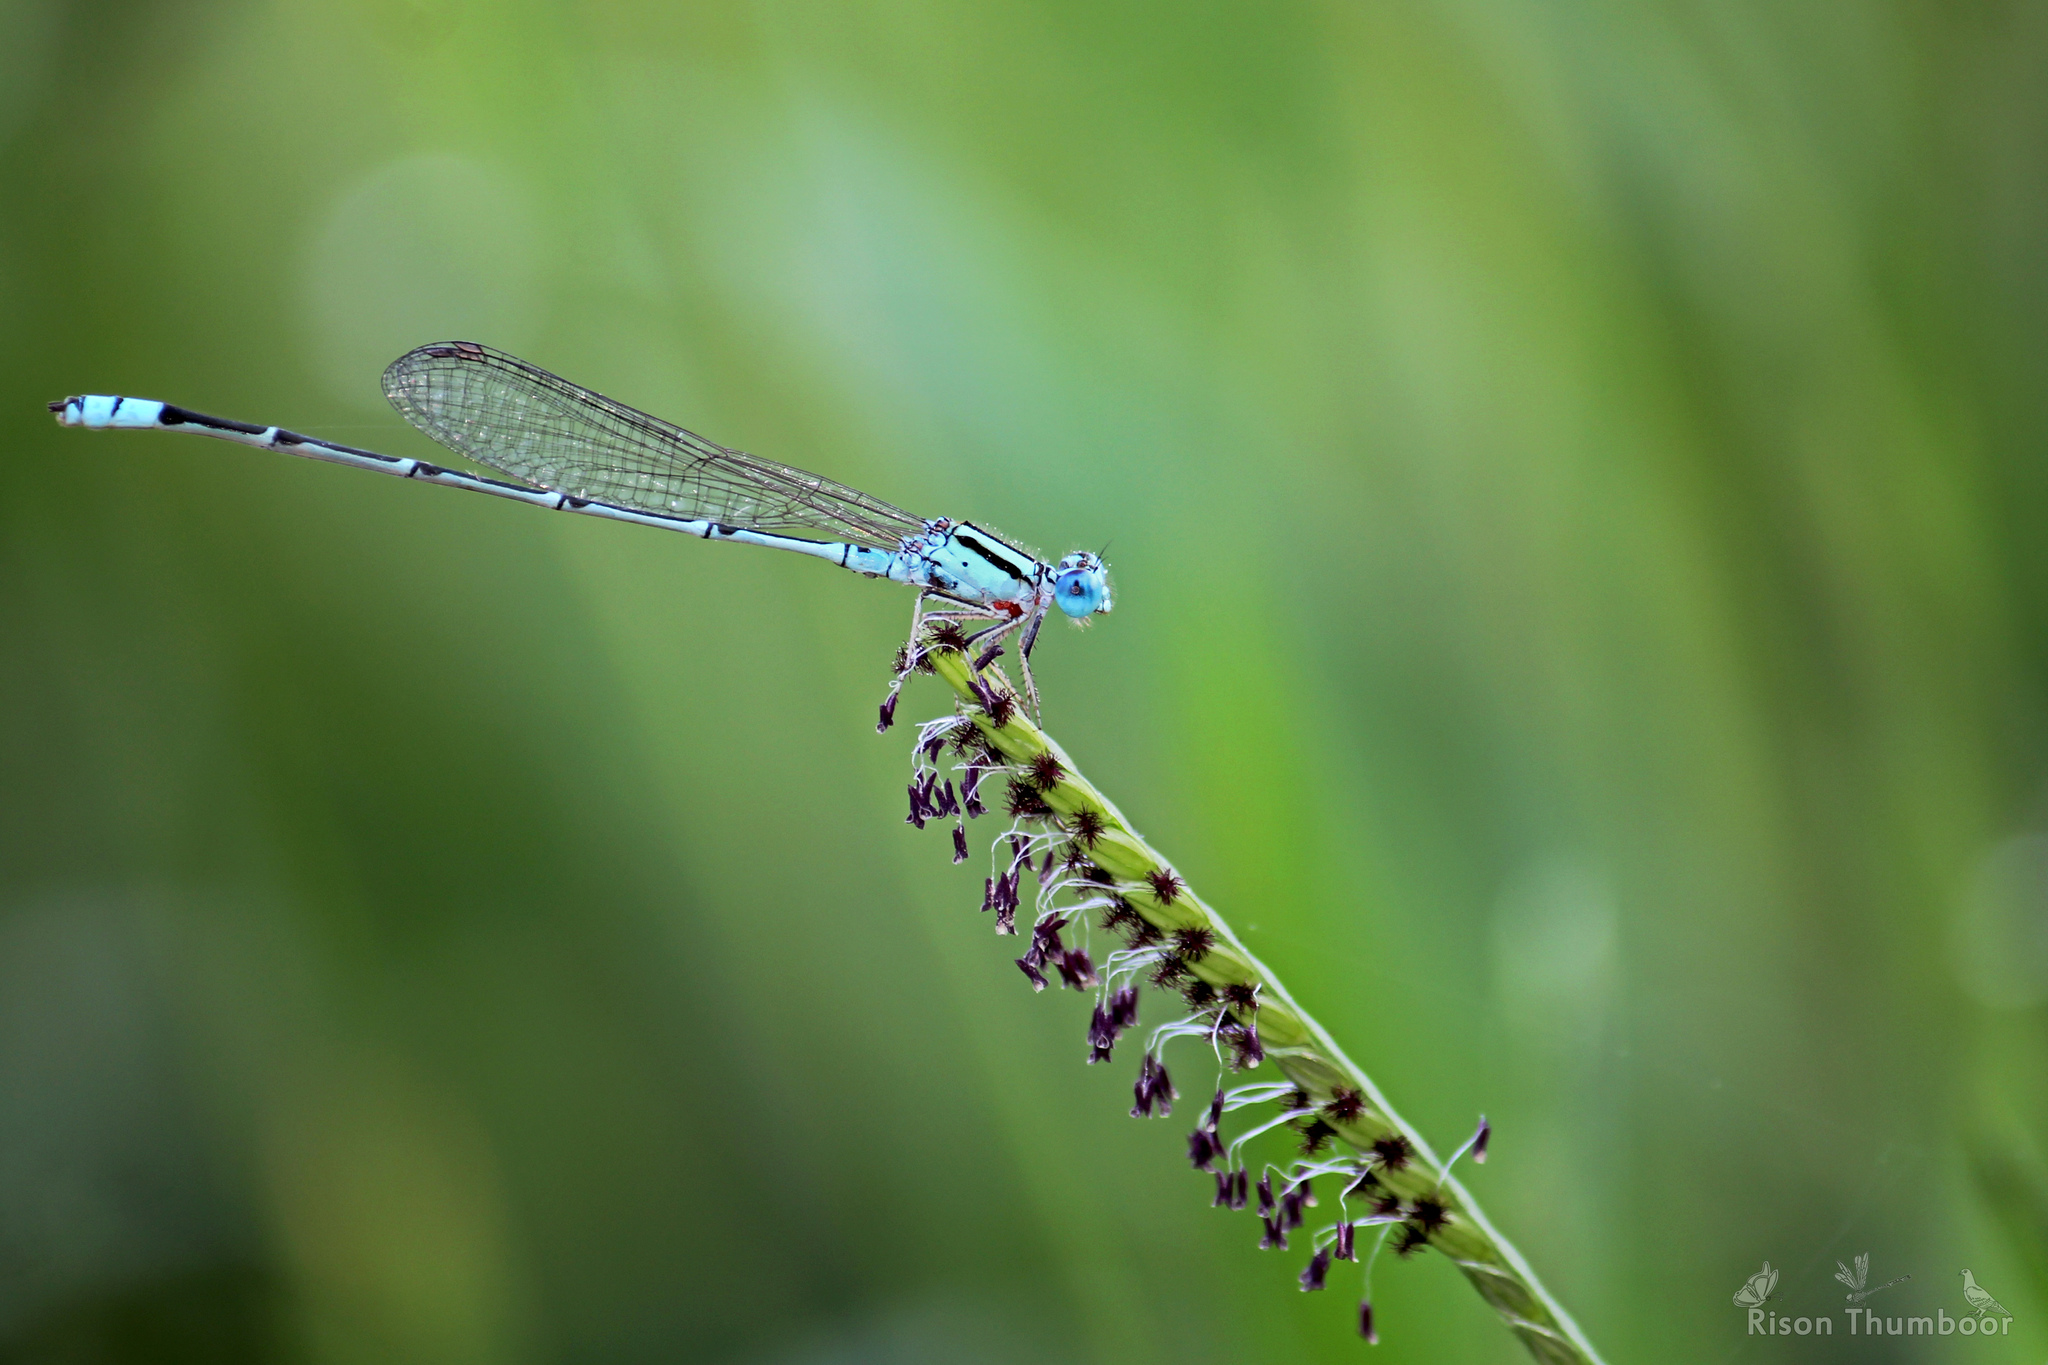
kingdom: Animalia
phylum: Arthropoda
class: Insecta
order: Odonata
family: Coenagrionidae
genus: Pseudagrion
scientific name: Pseudagrion microcephalum
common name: Blue riverdamsel
